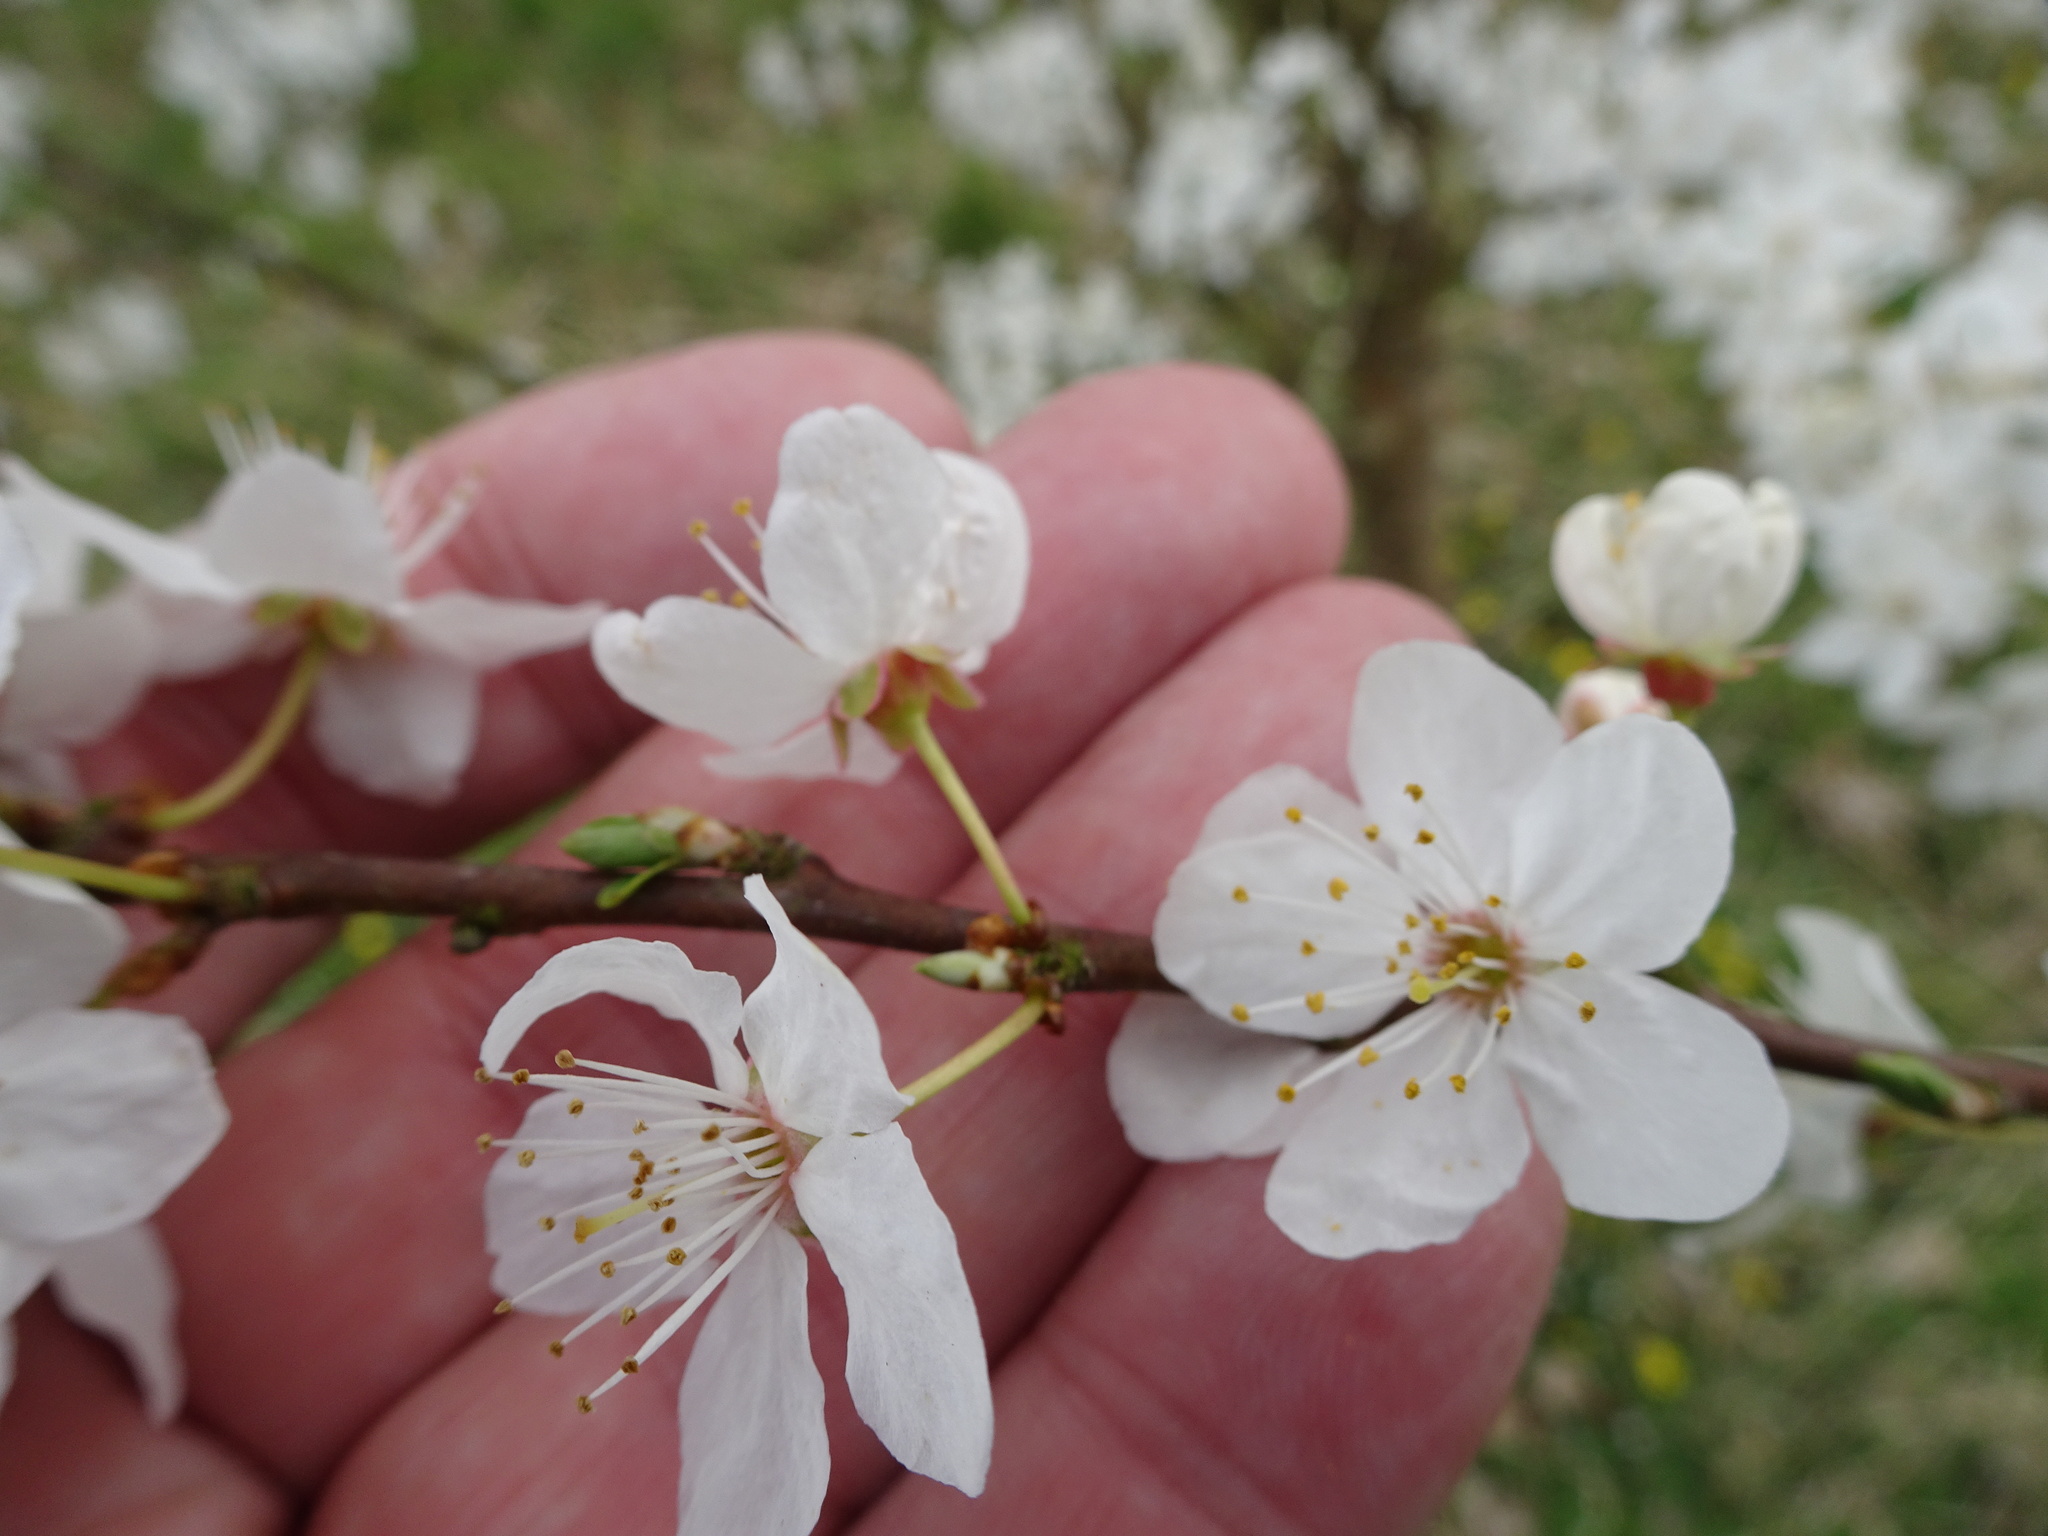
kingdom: Plantae
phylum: Tracheophyta
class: Magnoliopsida
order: Rosales
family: Rosaceae
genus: Prunus
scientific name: Prunus cerasifera
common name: Cherry plum
